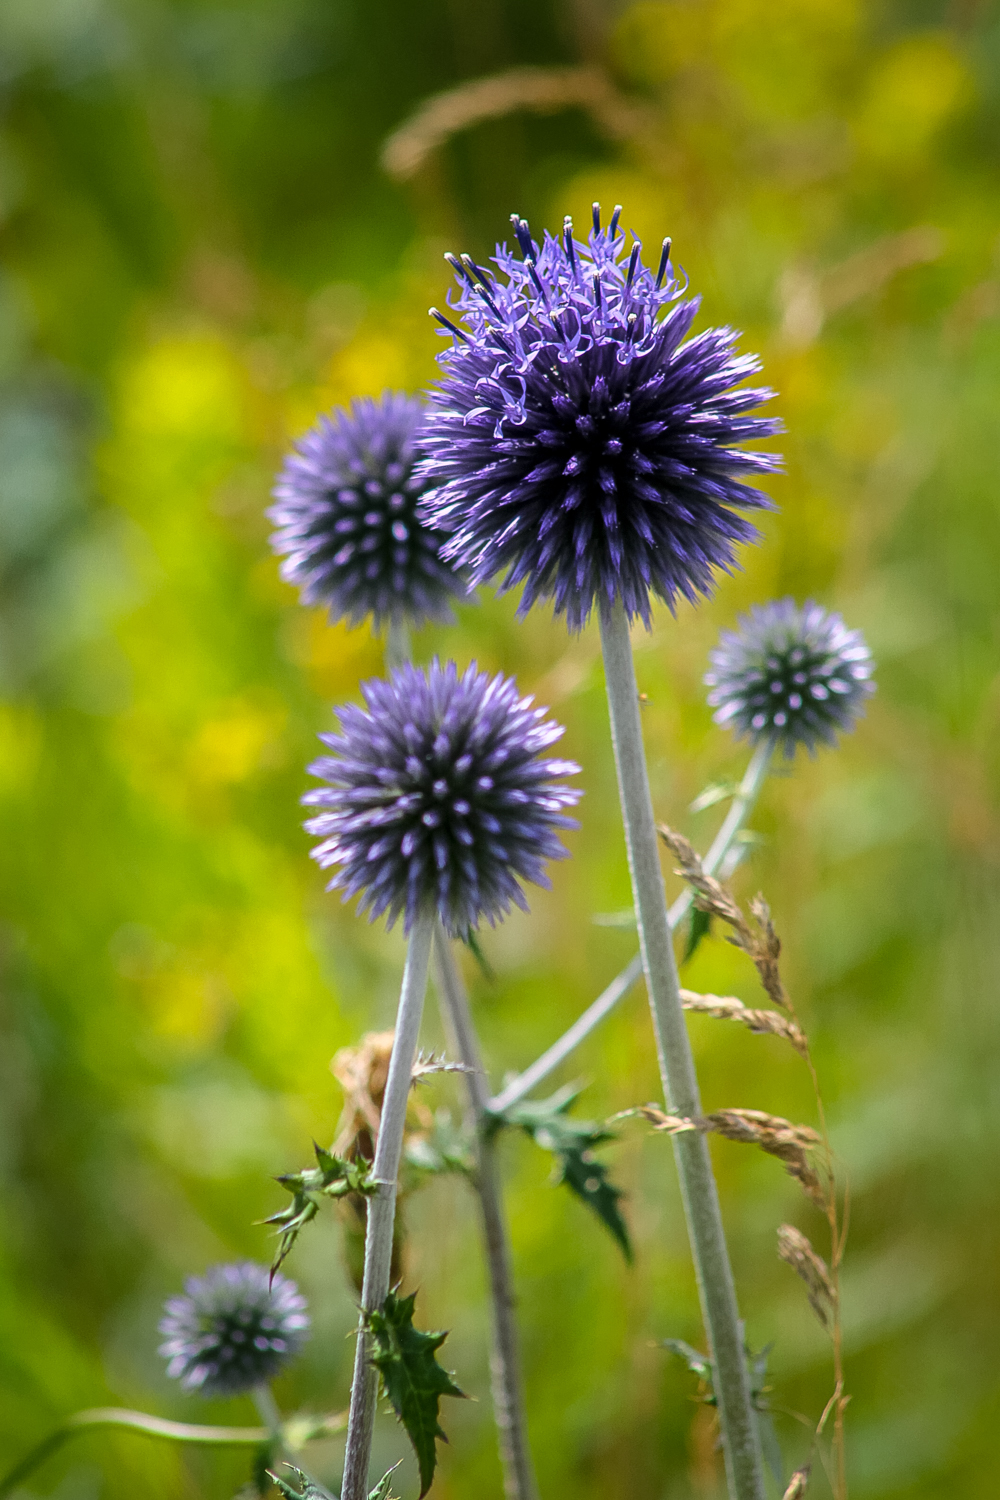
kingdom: Plantae
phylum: Tracheophyta
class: Magnoliopsida
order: Asterales
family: Asteraceae
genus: Echinops
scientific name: Echinops ritro
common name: Globe thistle
